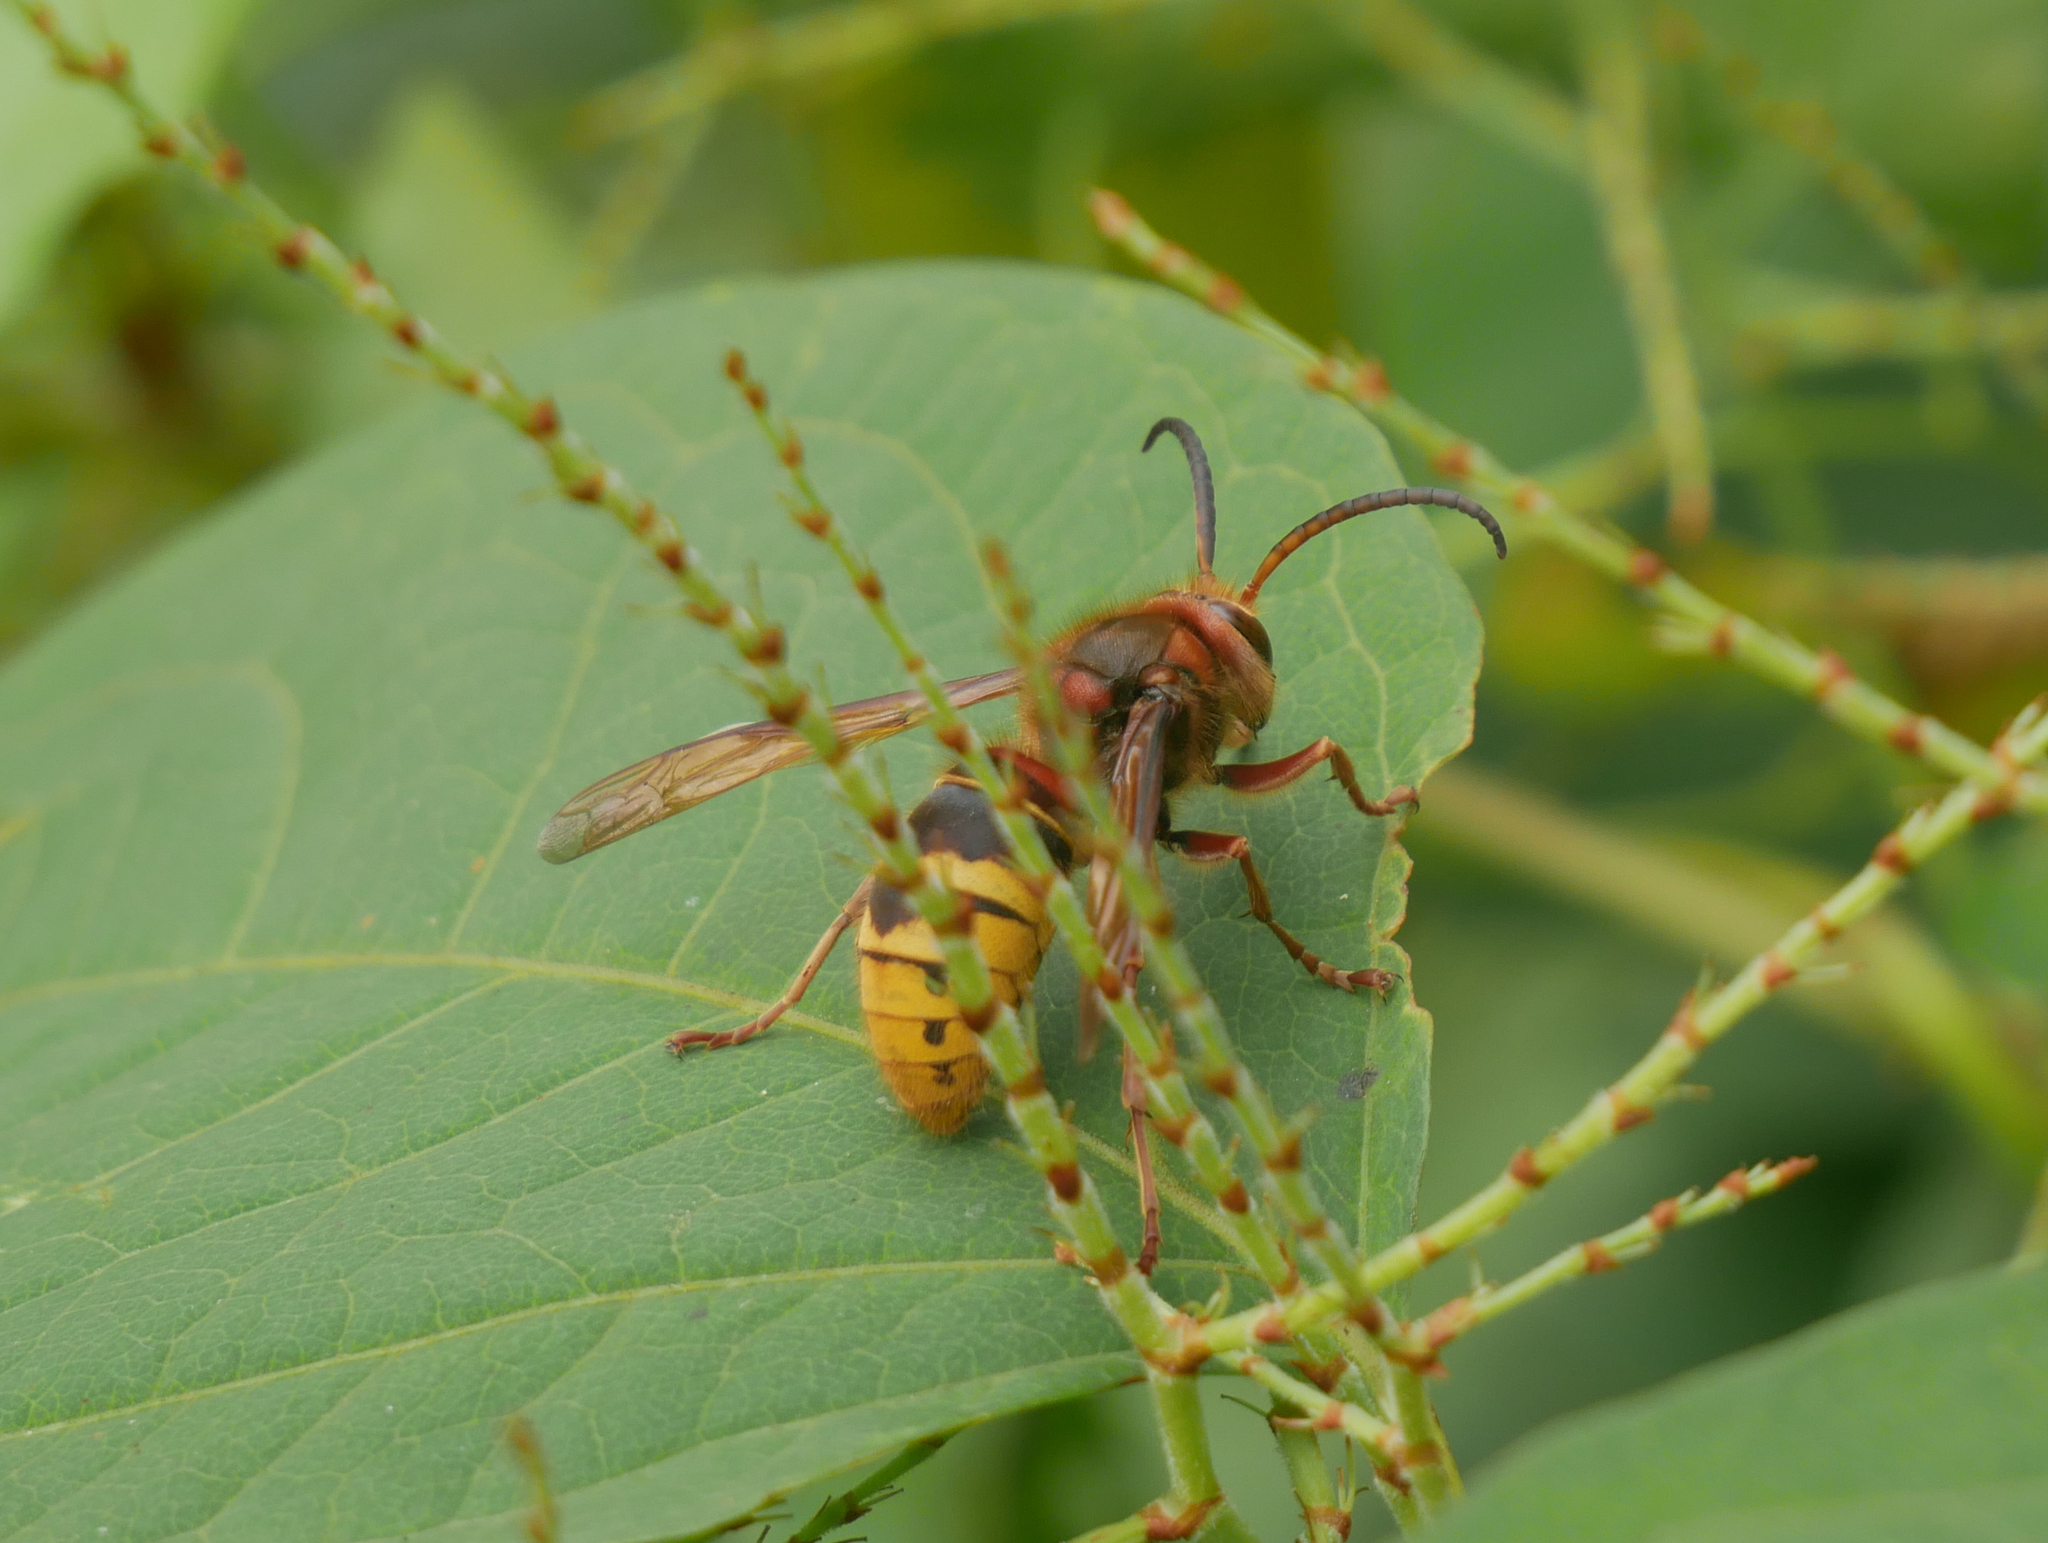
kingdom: Animalia
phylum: Arthropoda
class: Insecta
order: Hymenoptera
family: Vespidae
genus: Vespa
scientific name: Vespa crabro
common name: Hornet
